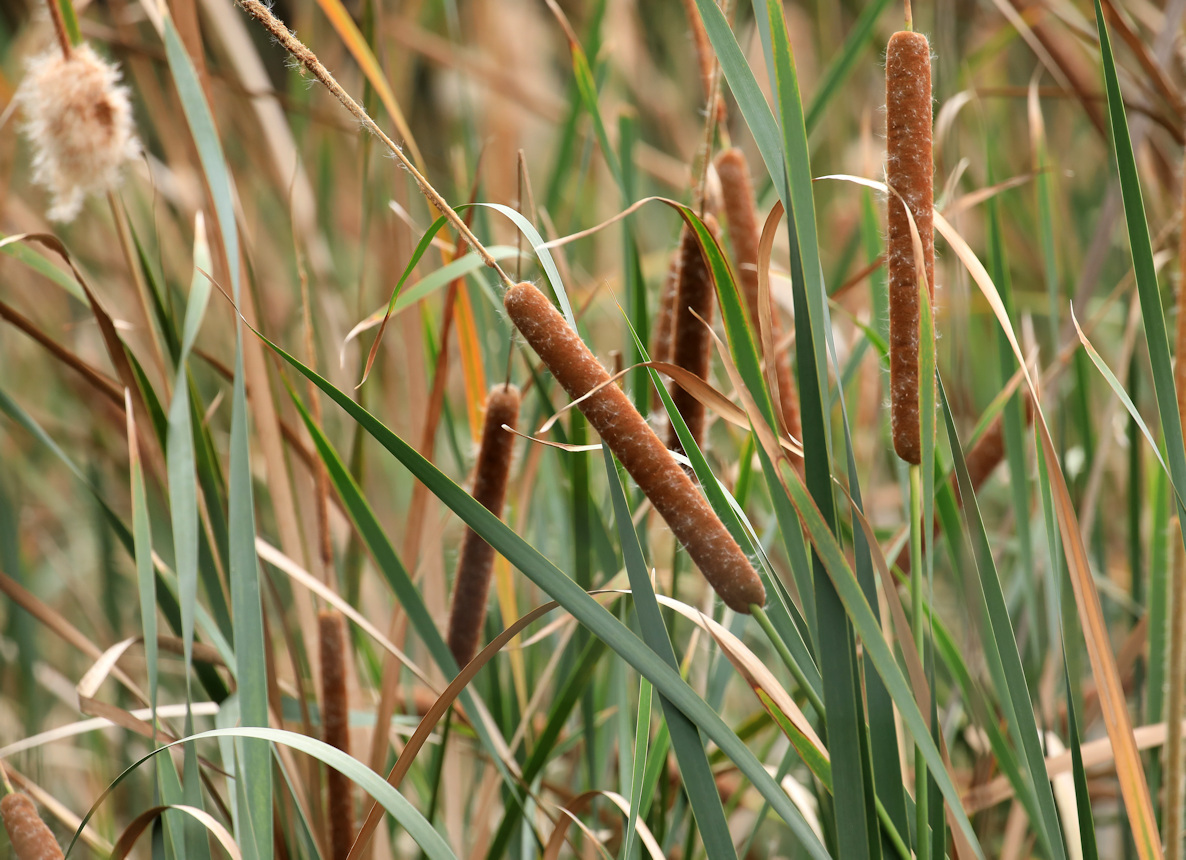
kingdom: Plantae
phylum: Tracheophyta
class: Liliopsida
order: Poales
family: Typhaceae
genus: Typha
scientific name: Typha capensis
